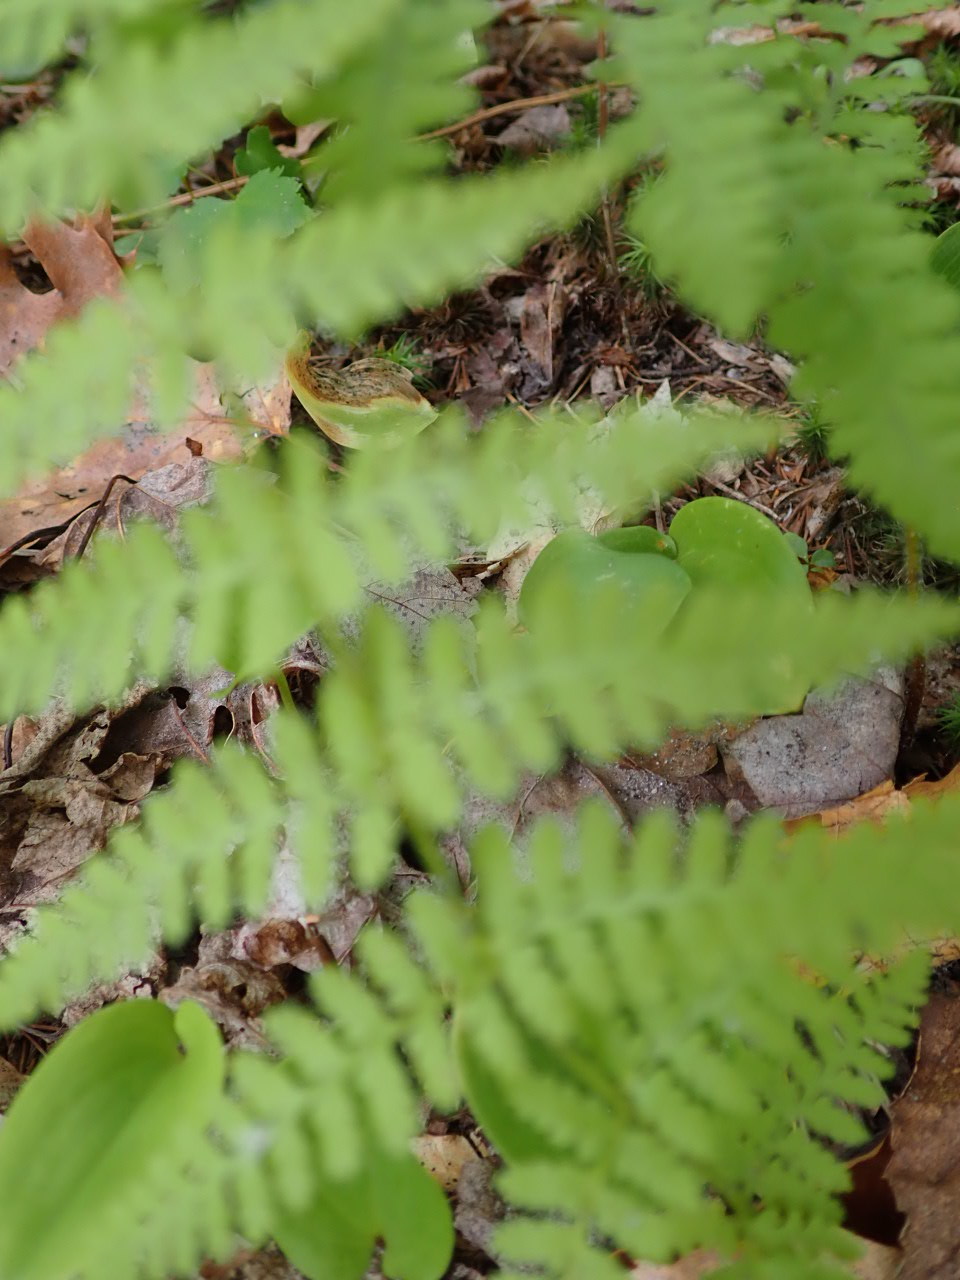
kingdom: Plantae
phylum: Tracheophyta
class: Polypodiopsida
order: Polypodiales
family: Dennstaedtiaceae
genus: Sitobolium
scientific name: Sitobolium punctilobum
